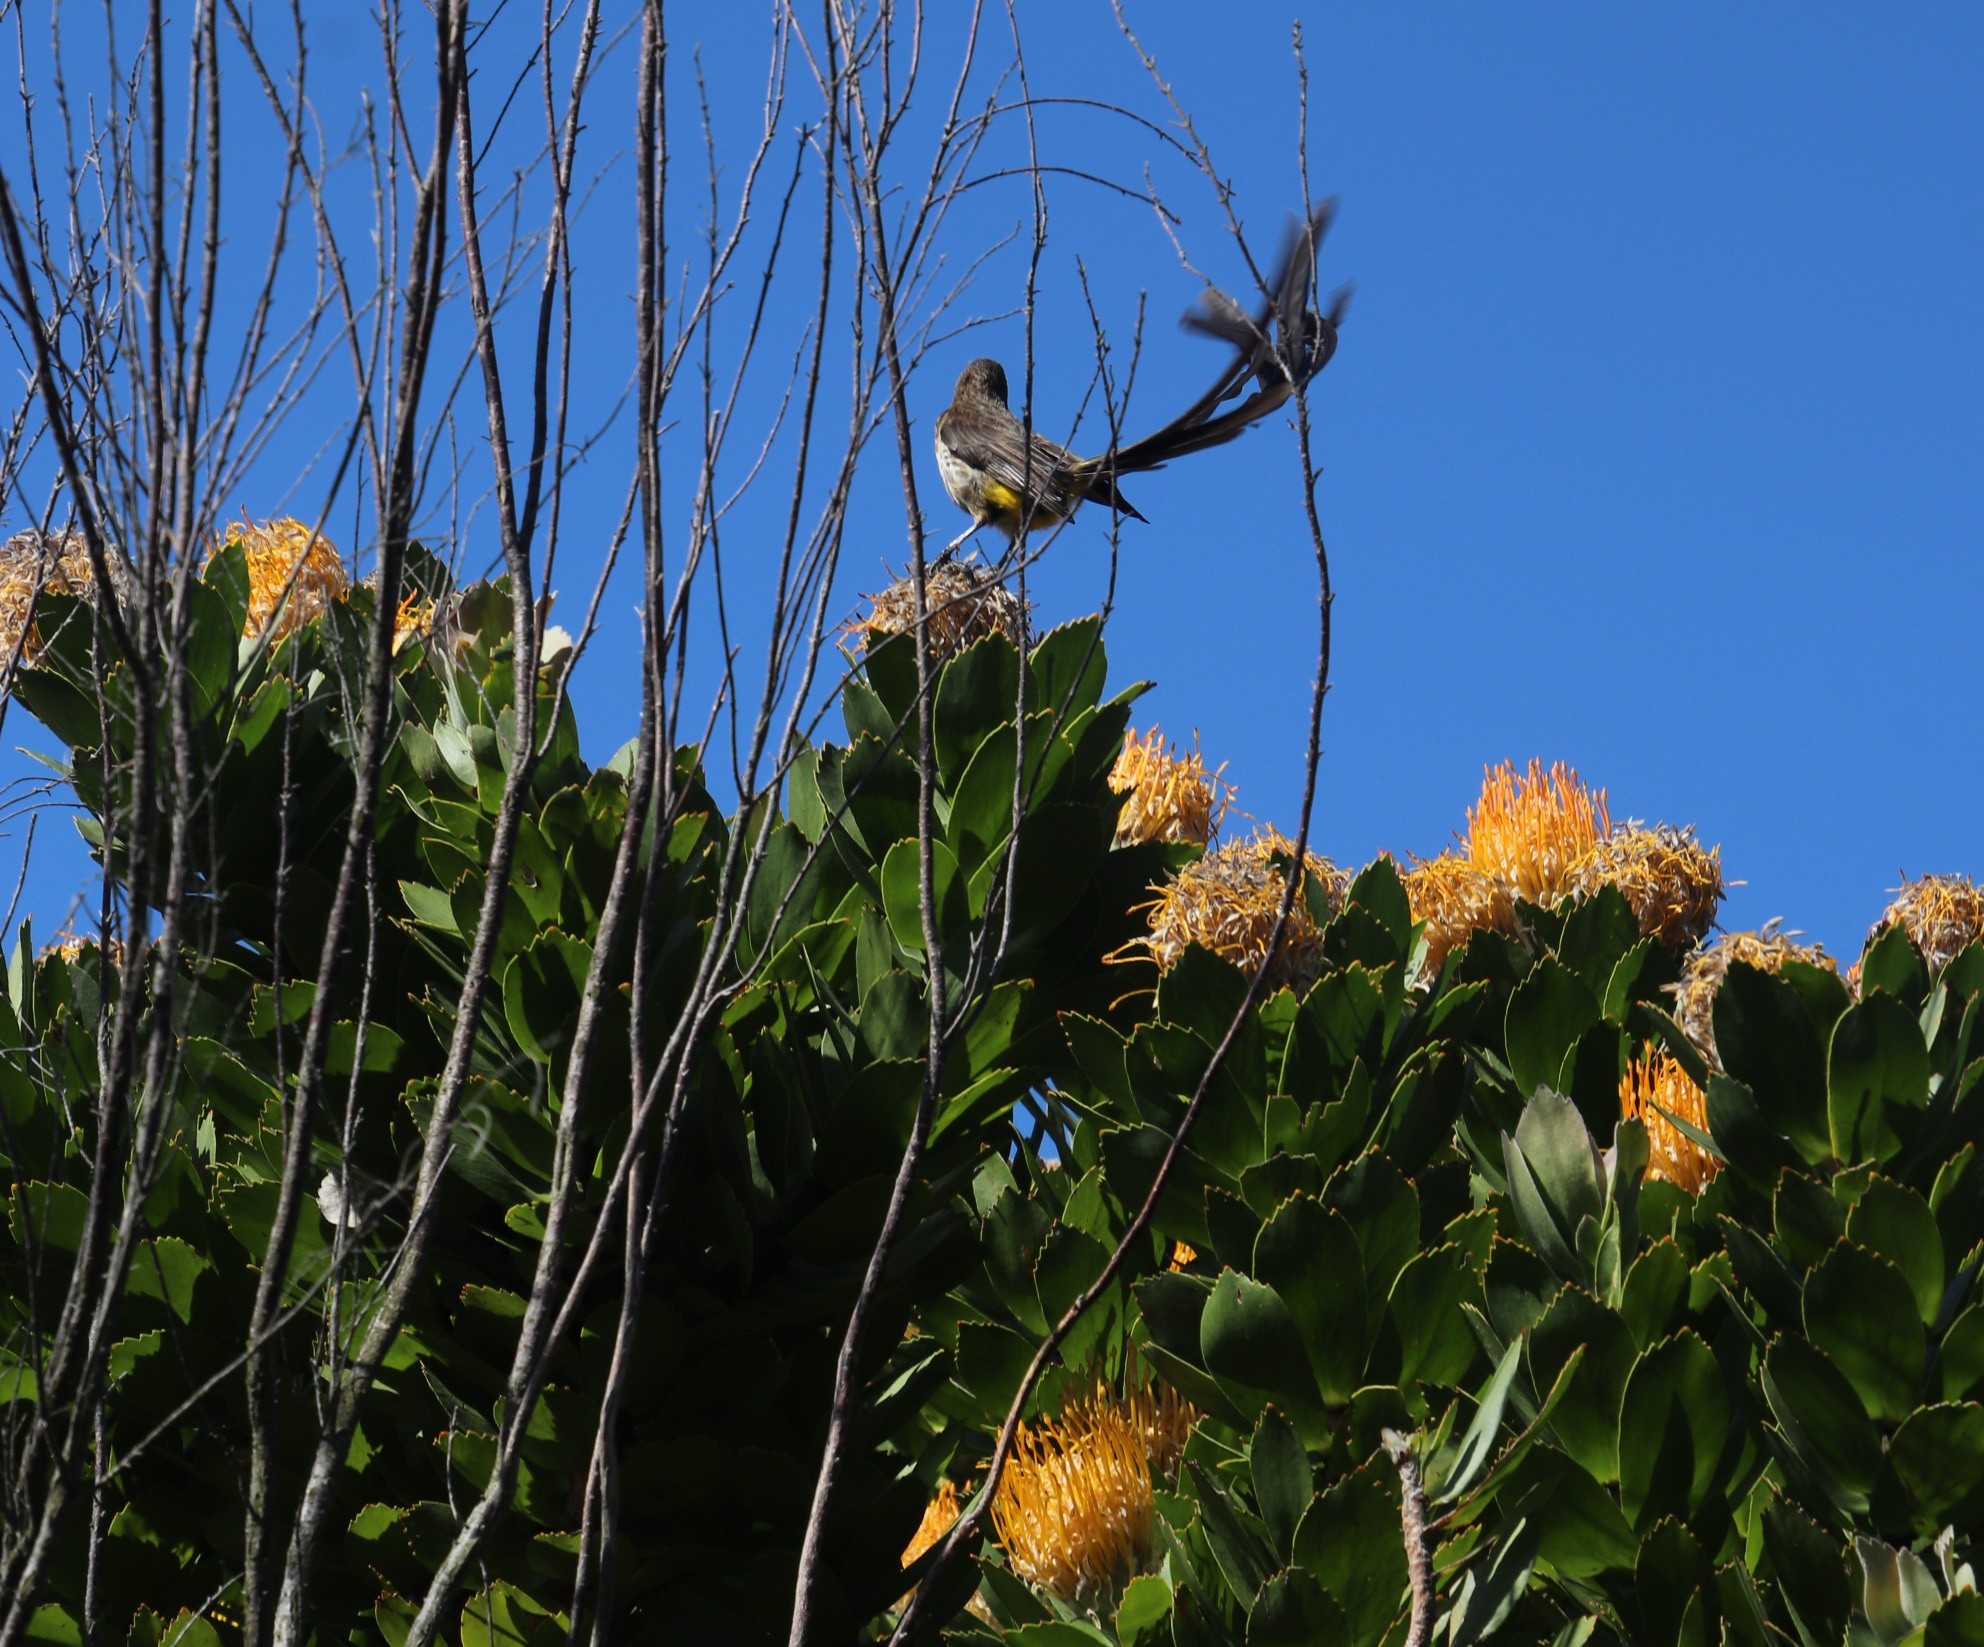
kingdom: Animalia
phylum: Chordata
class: Aves
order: Passeriformes
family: Promeropidae
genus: Promerops
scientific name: Promerops cafer
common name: Cape sugarbird
